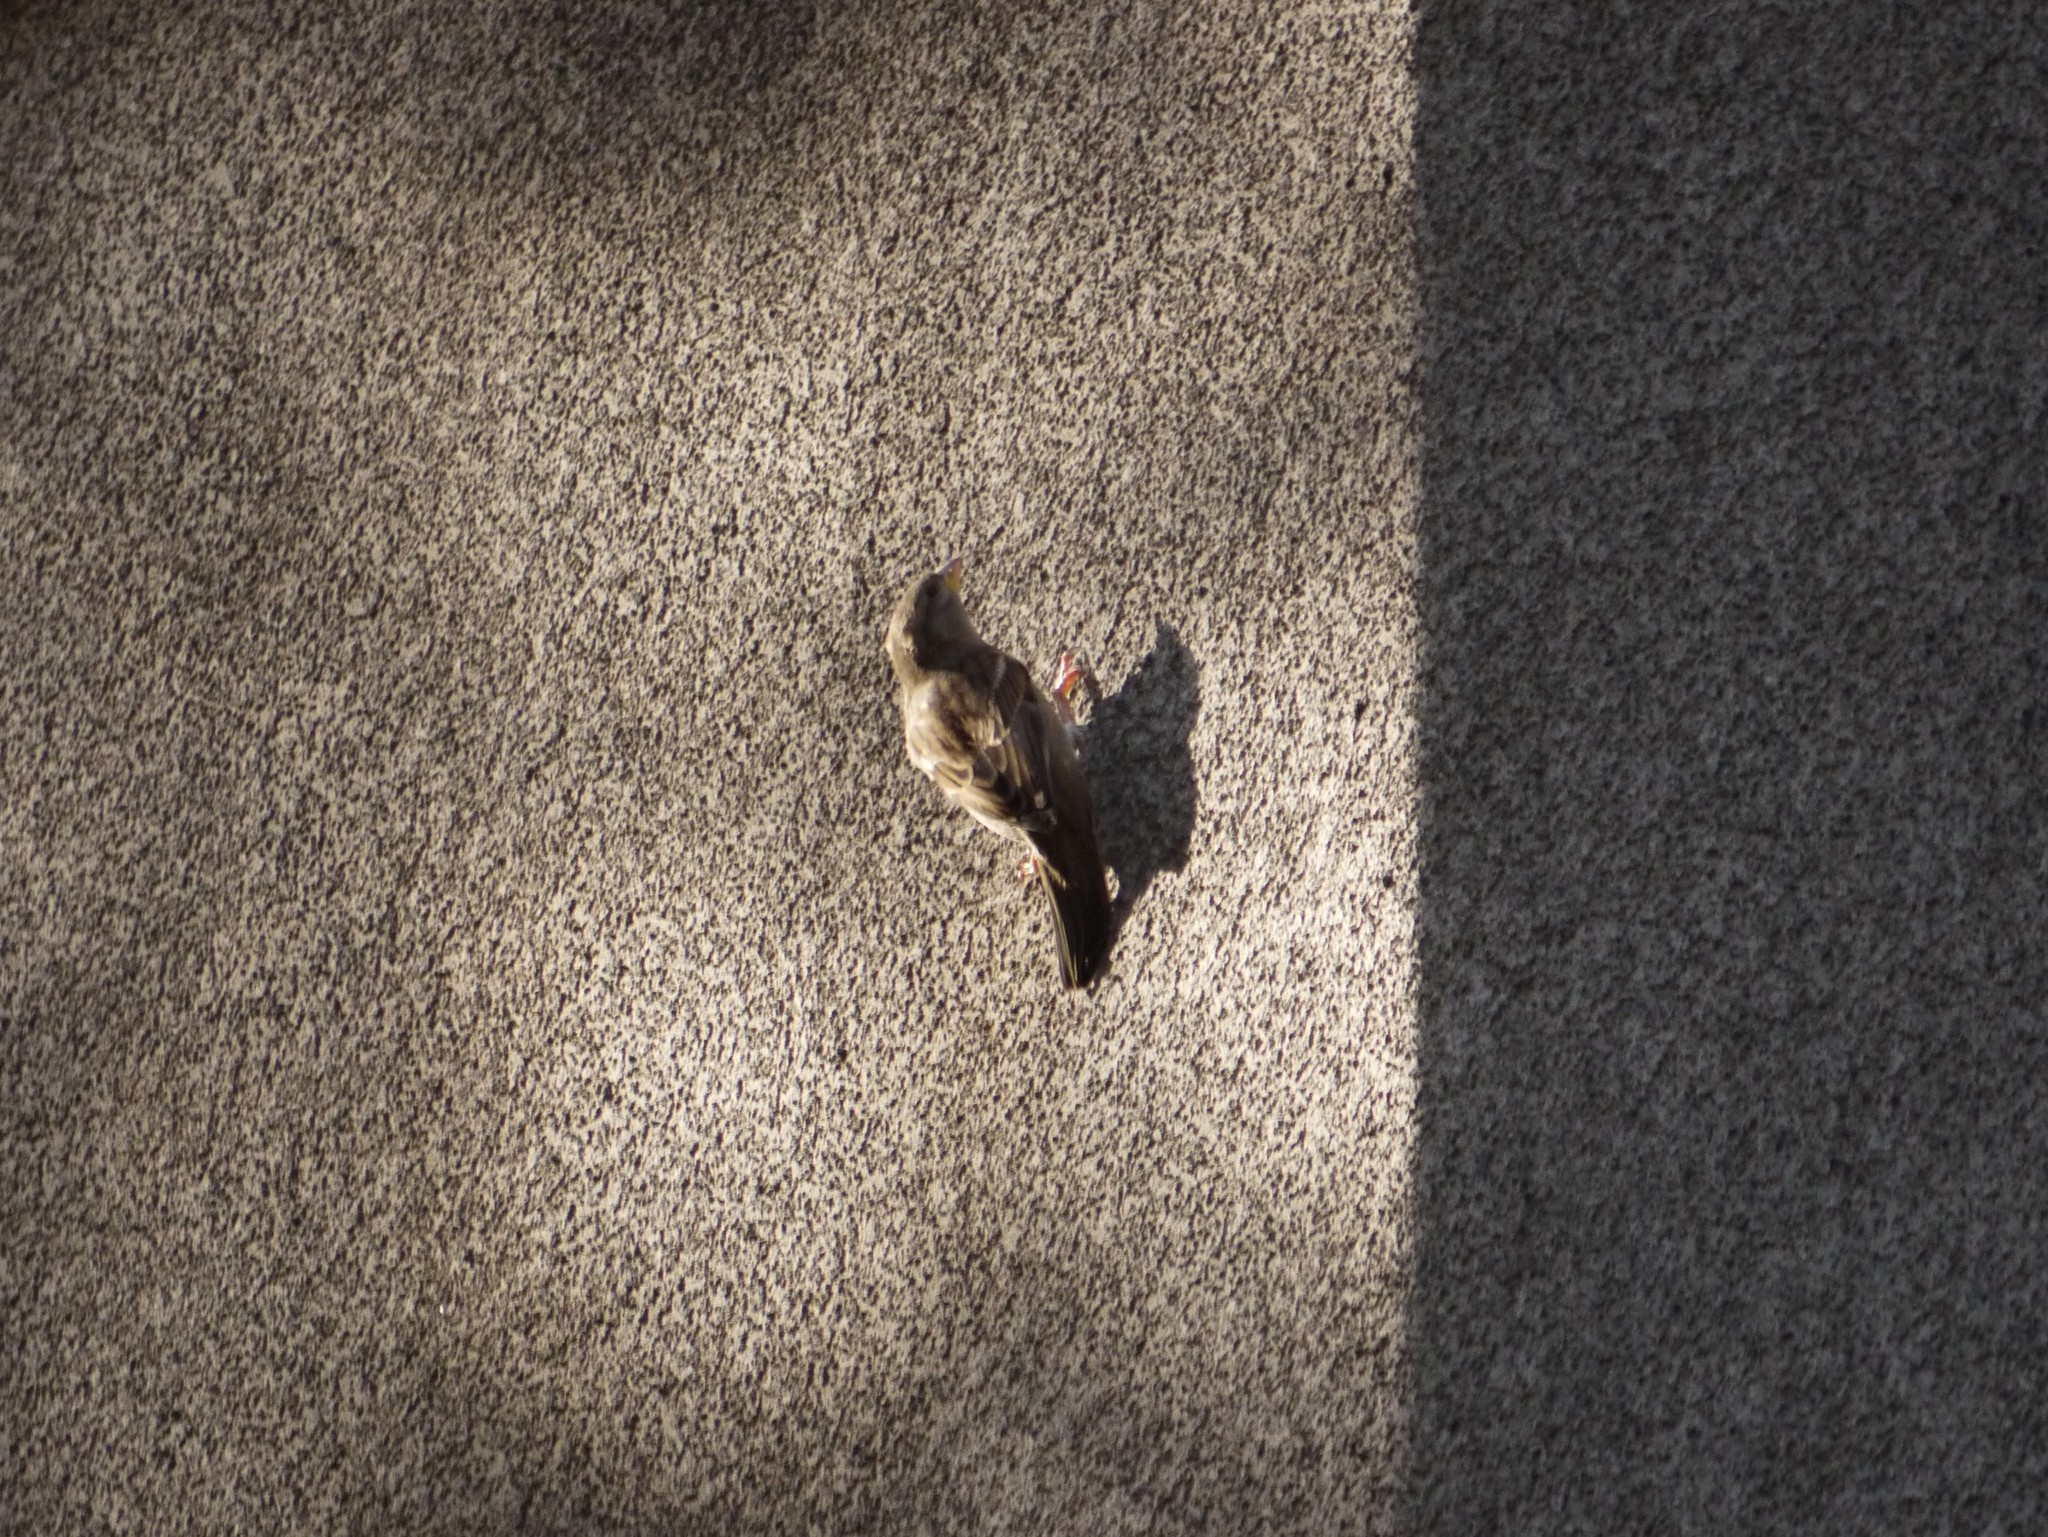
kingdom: Animalia
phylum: Chordata
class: Aves
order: Passeriformes
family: Passeridae
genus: Passer
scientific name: Passer domesticus
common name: House sparrow
